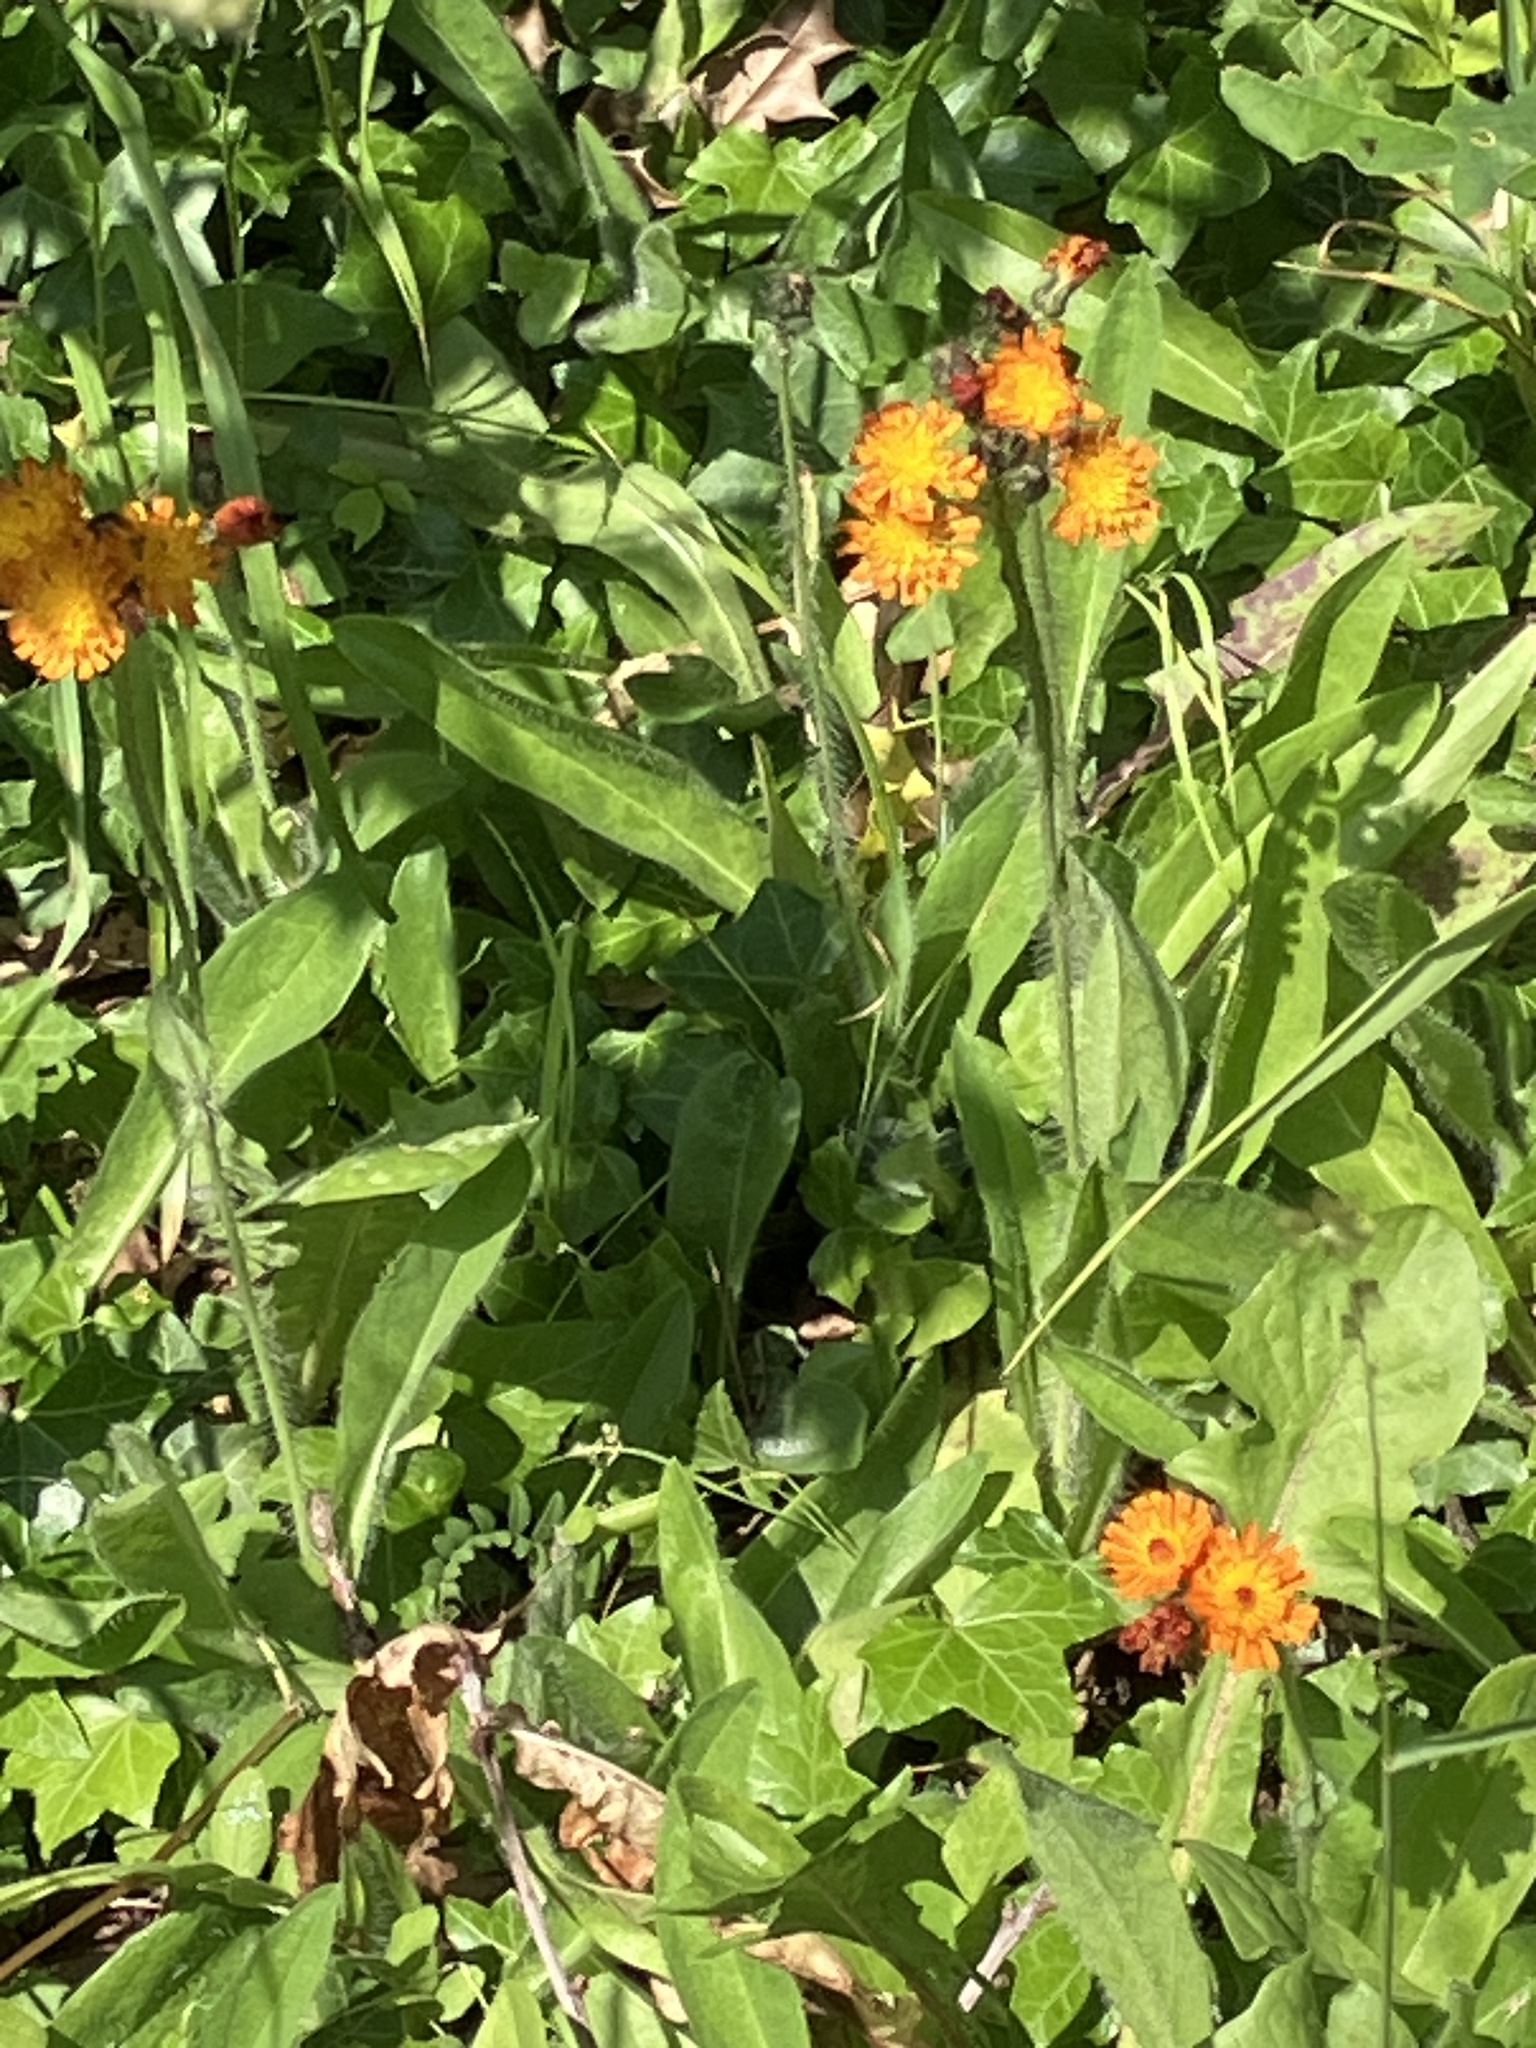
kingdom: Plantae
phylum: Tracheophyta
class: Magnoliopsida
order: Asterales
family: Asteraceae
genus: Pilosella
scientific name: Pilosella aurantiaca
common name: Fox-and-cubs
